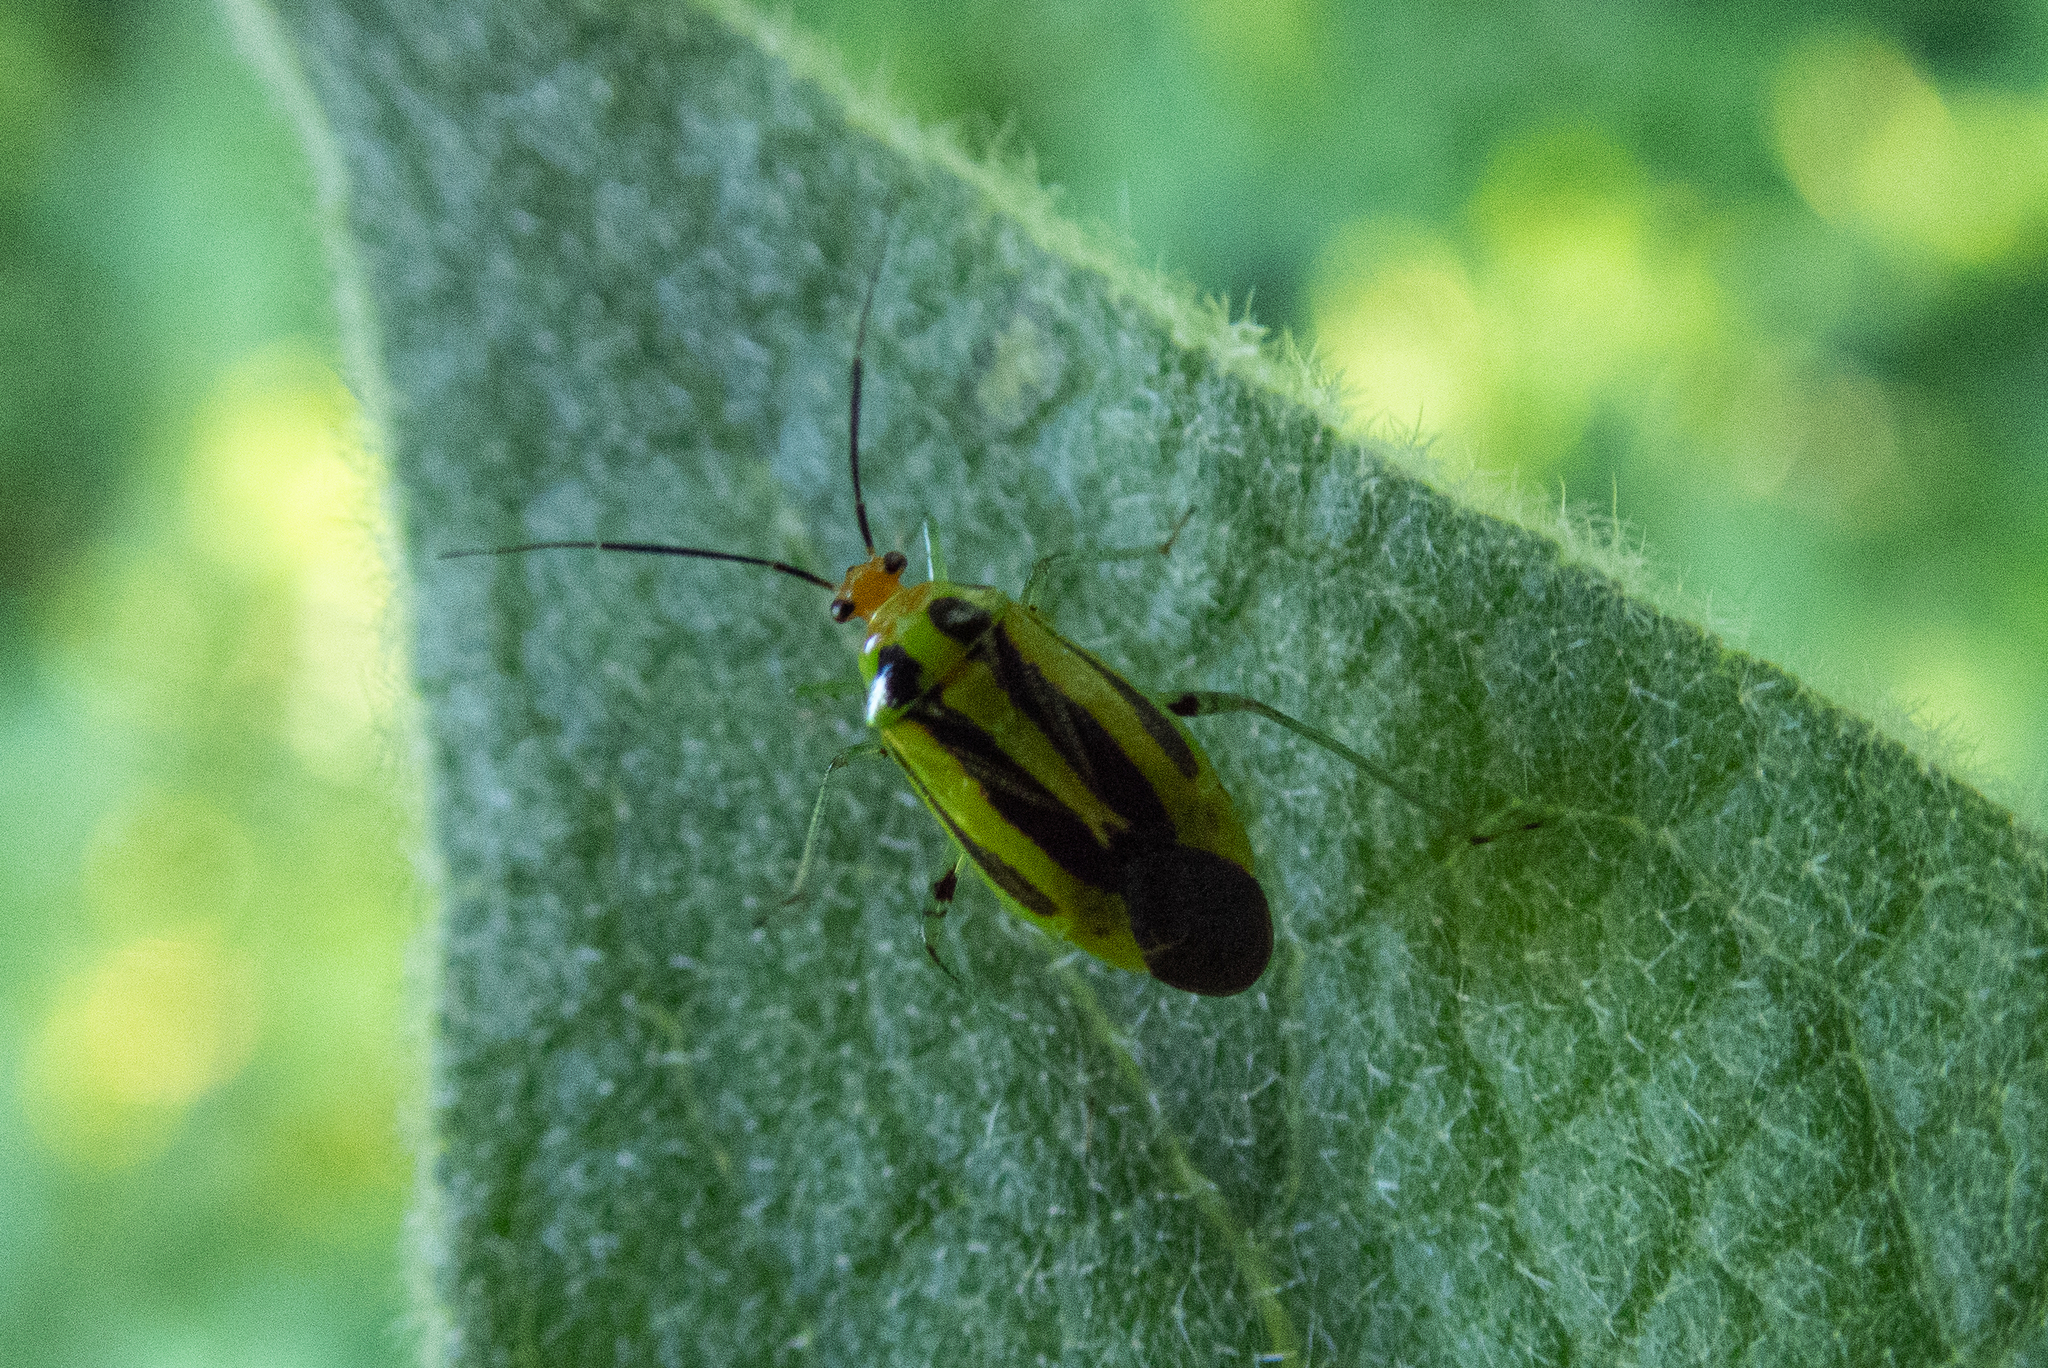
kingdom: Animalia
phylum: Arthropoda
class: Insecta
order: Dermaptera
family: Forficulidae
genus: Forficula
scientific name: Forficula
